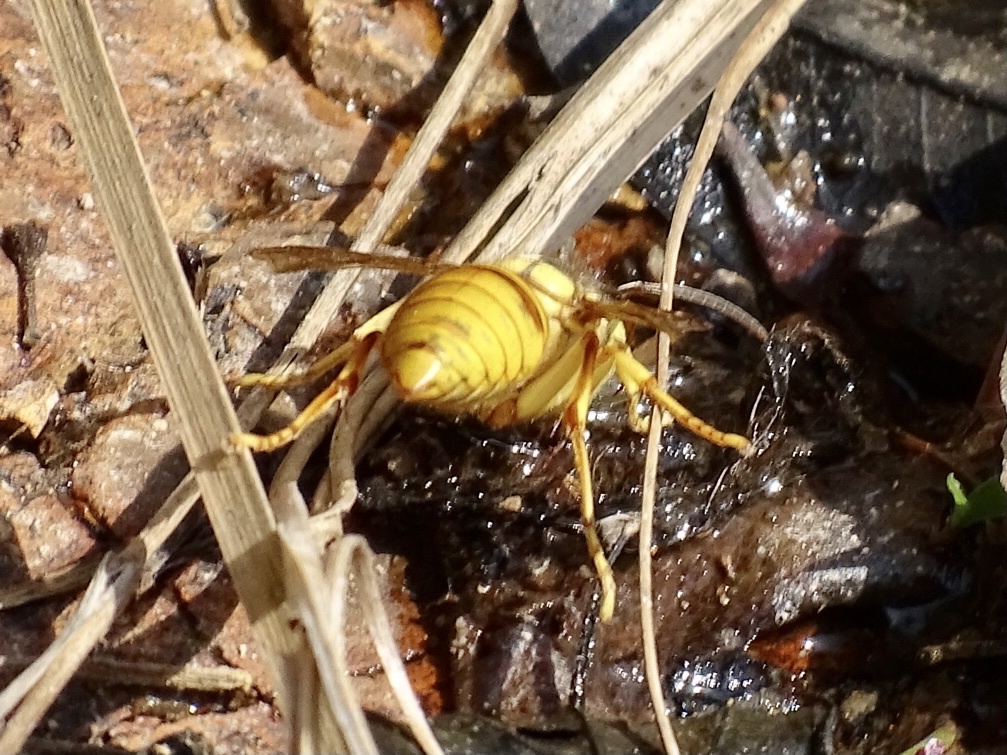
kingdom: Animalia
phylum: Arthropoda
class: Insecta
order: Hymenoptera
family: Vespidae
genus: Vespa
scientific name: Vespa bicolor
